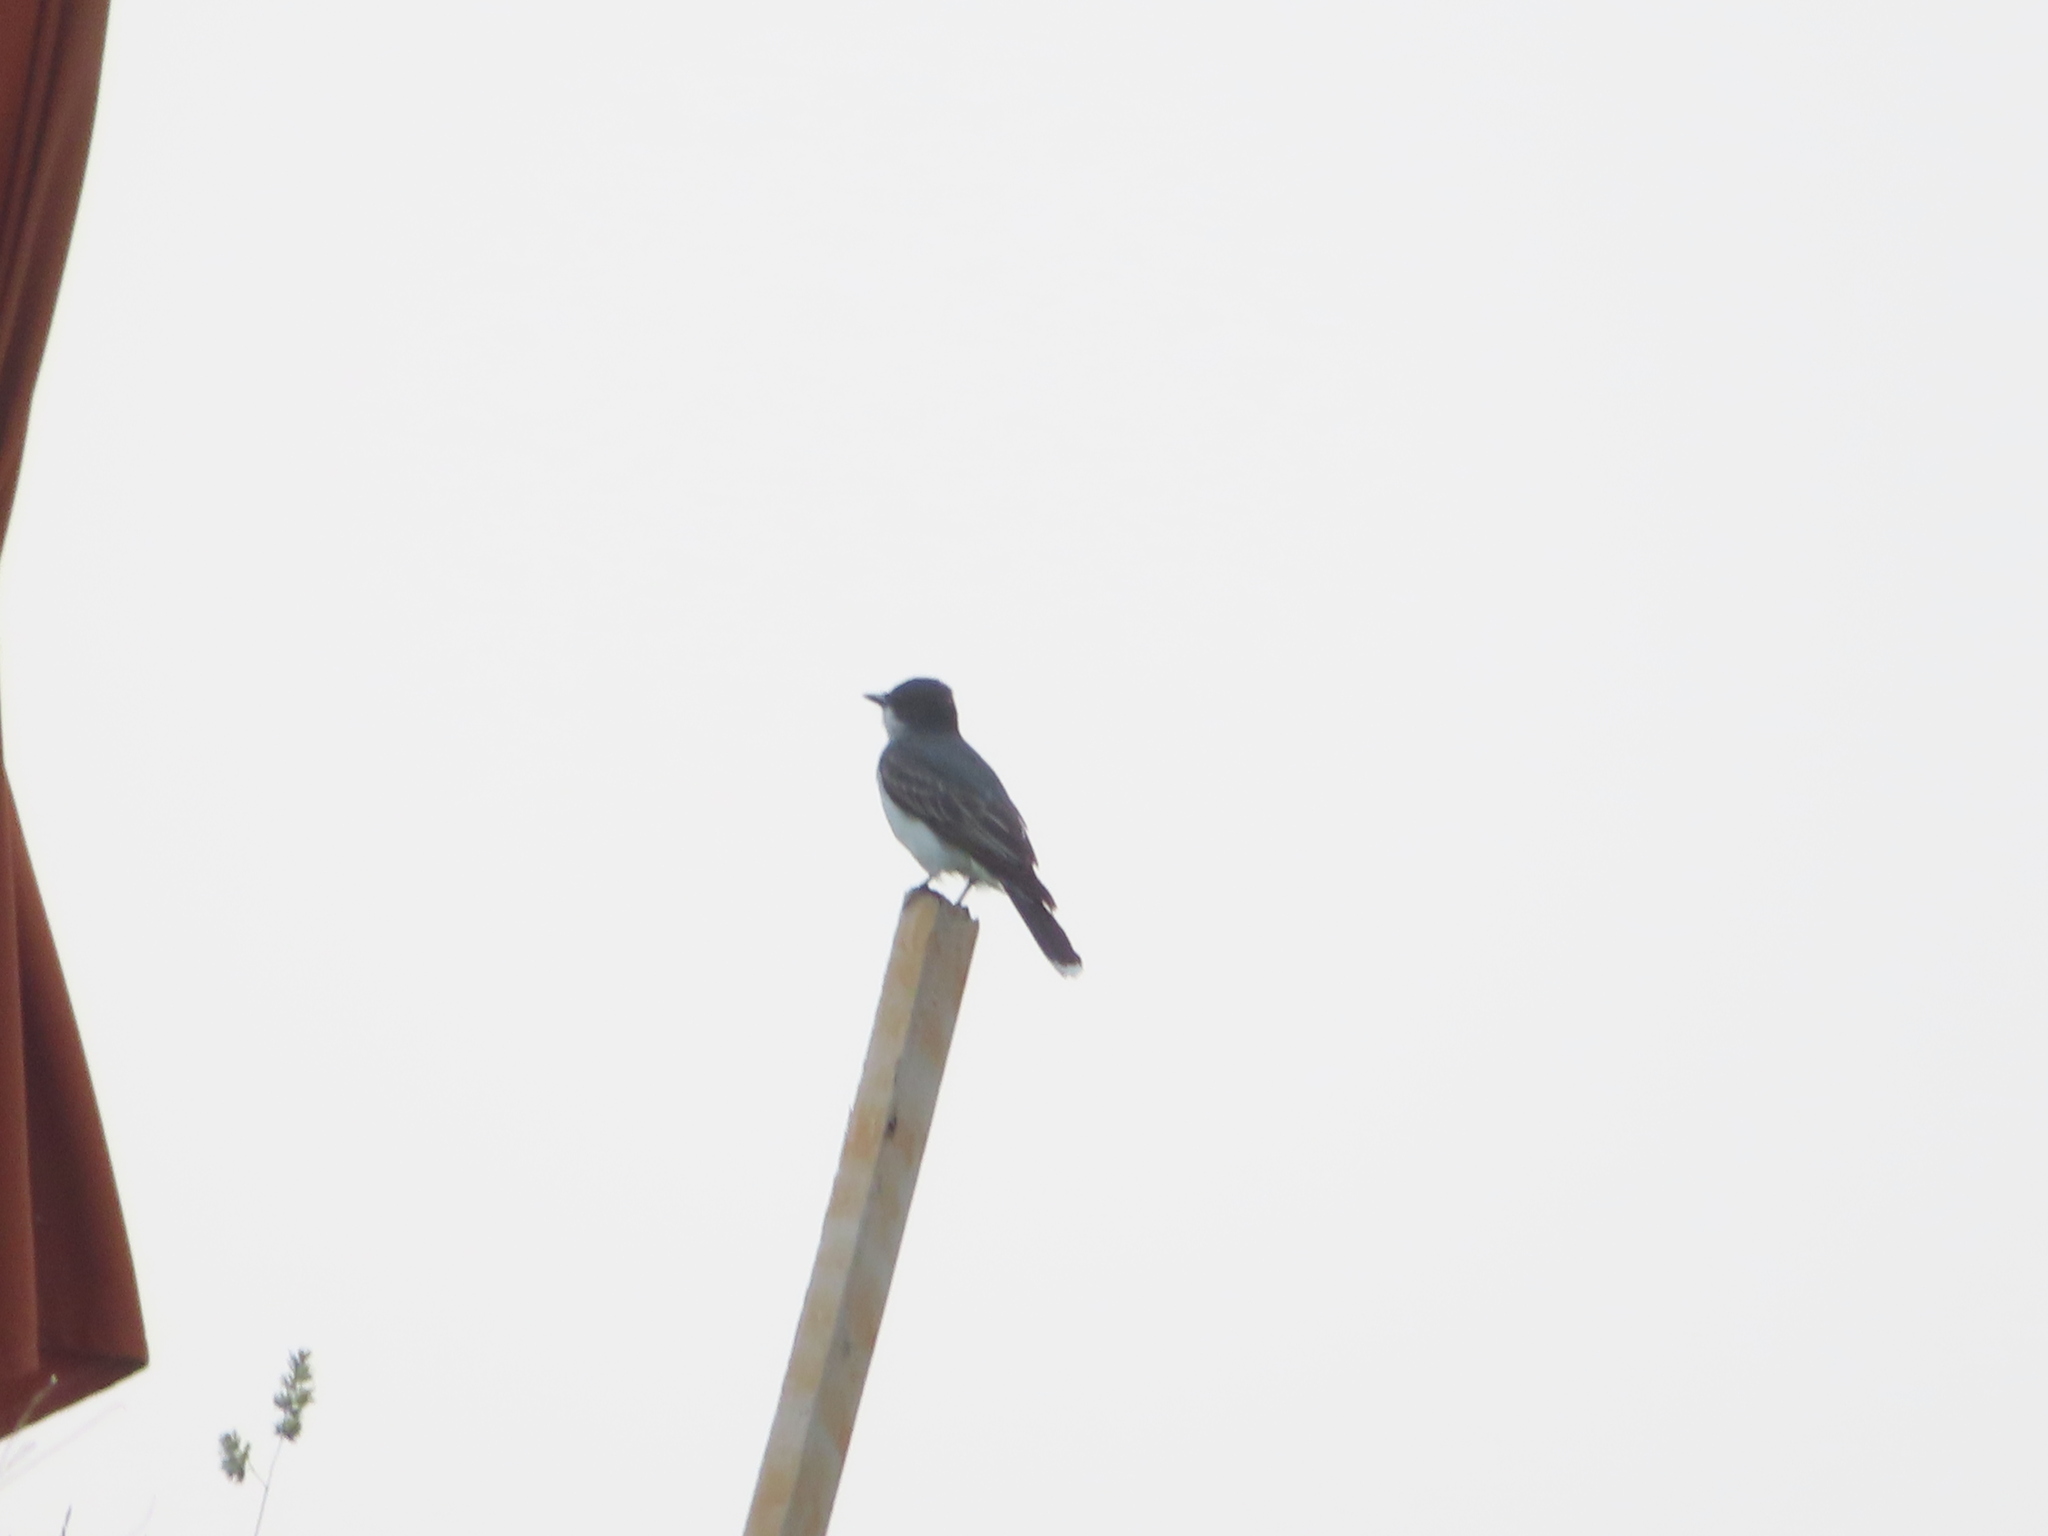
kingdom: Animalia
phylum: Chordata
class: Aves
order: Passeriformes
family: Tyrannidae
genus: Tyrannus
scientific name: Tyrannus tyrannus
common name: Eastern kingbird
